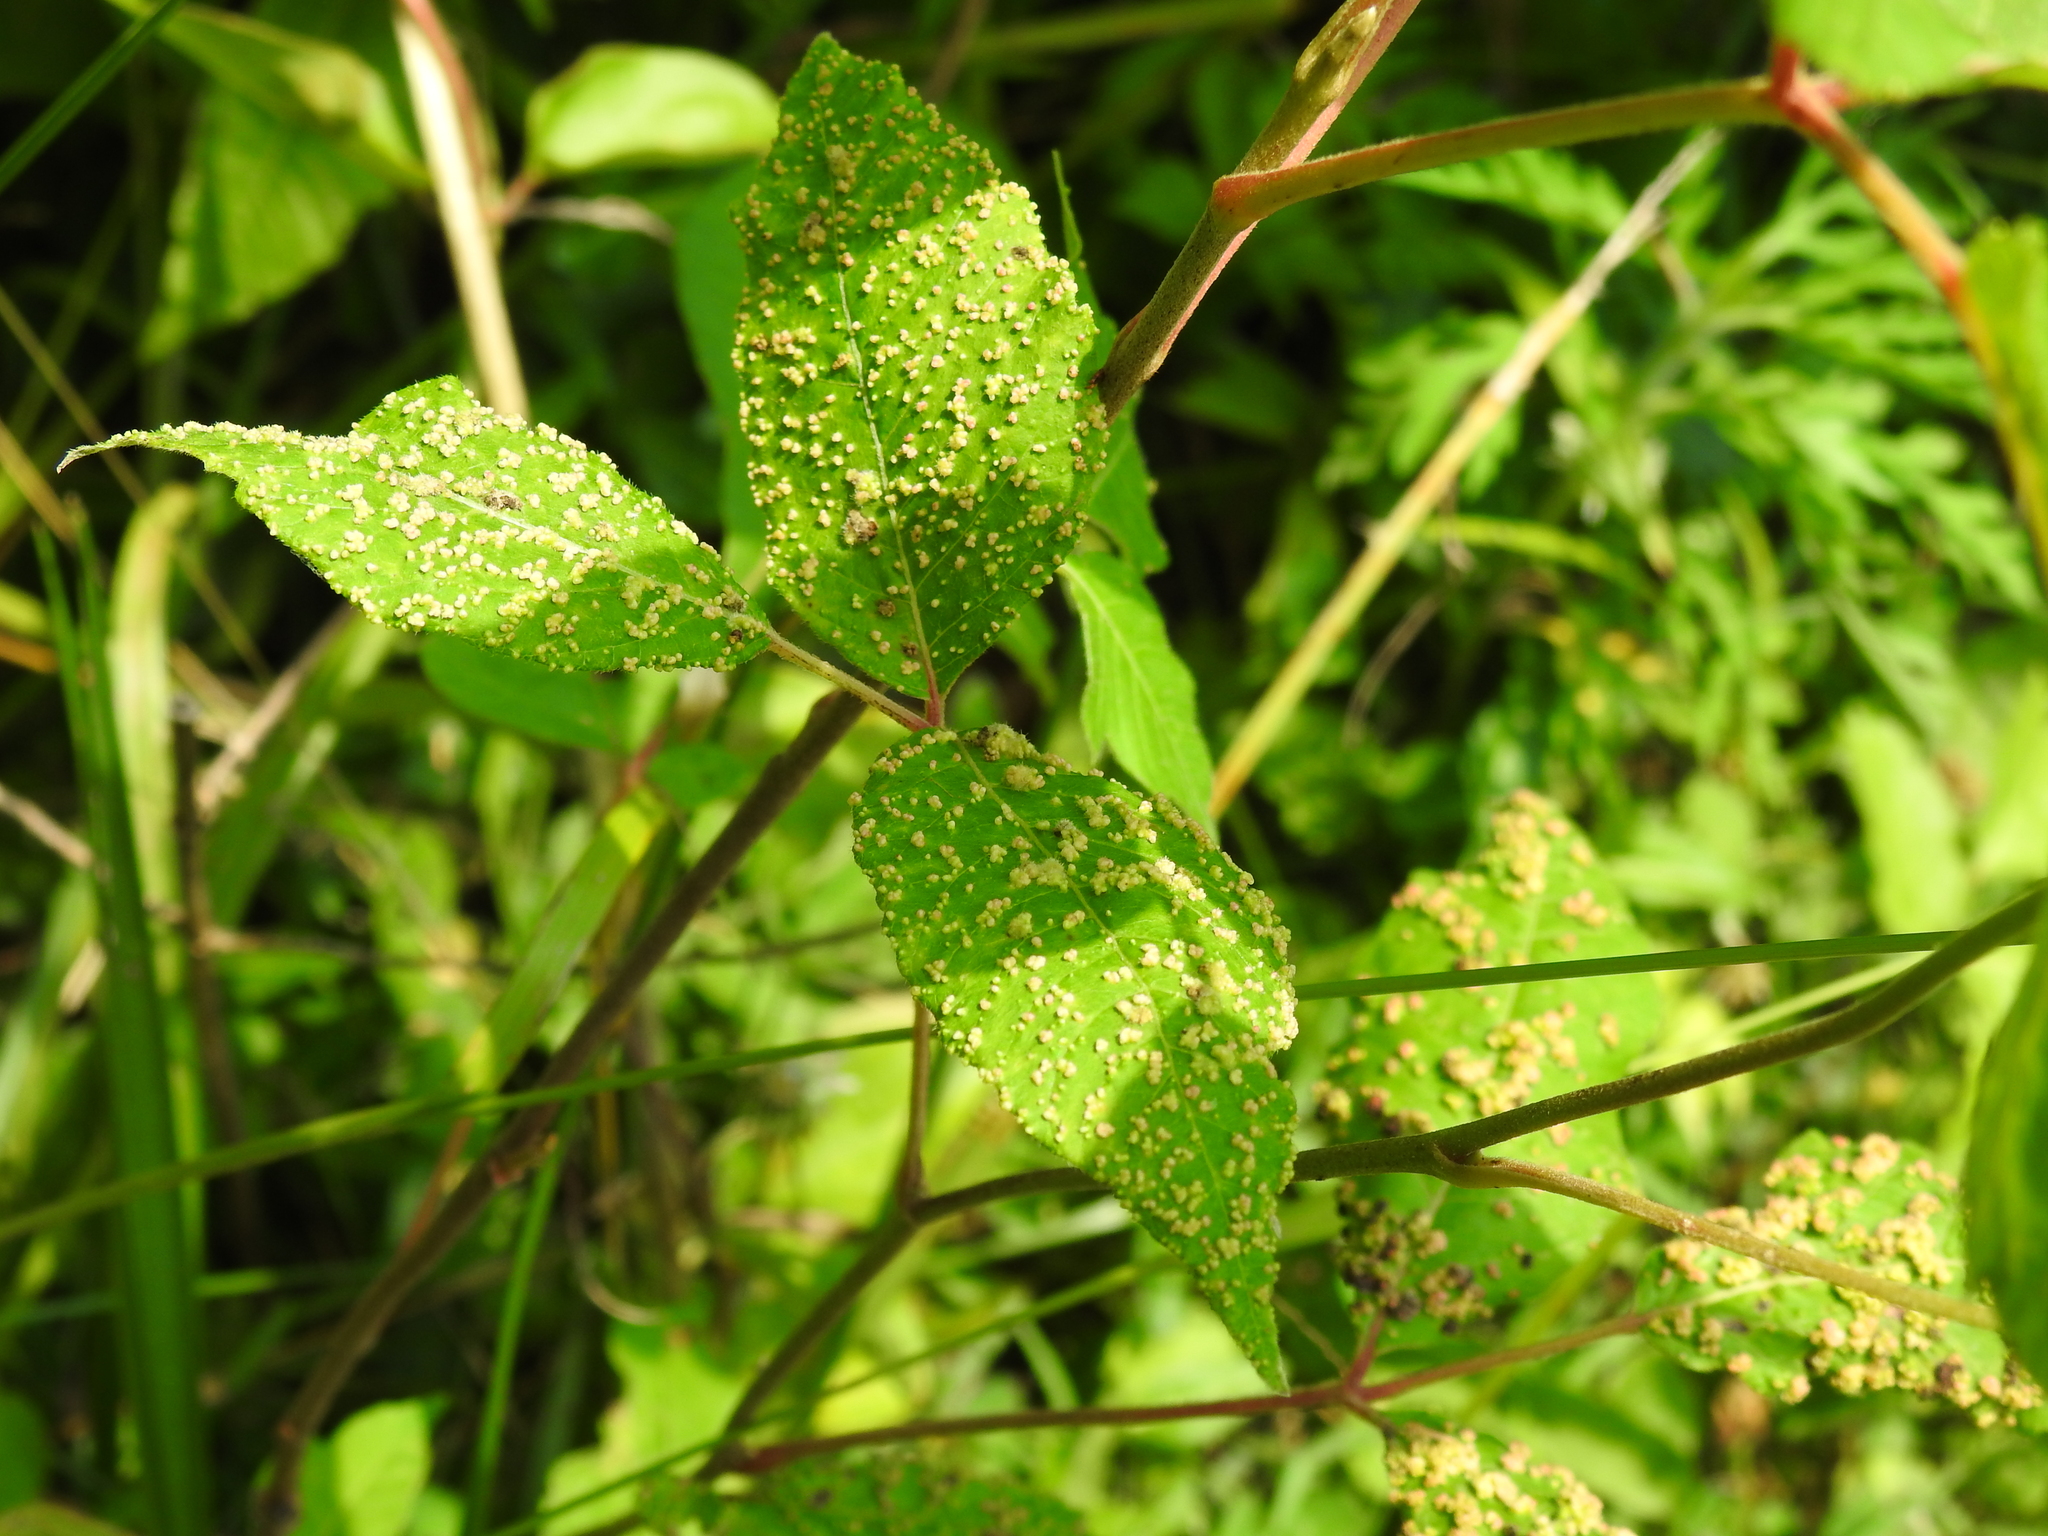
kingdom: Animalia
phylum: Arthropoda
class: Arachnida
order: Trombidiformes
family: Eriophyidae
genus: Aculops
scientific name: Aculops
